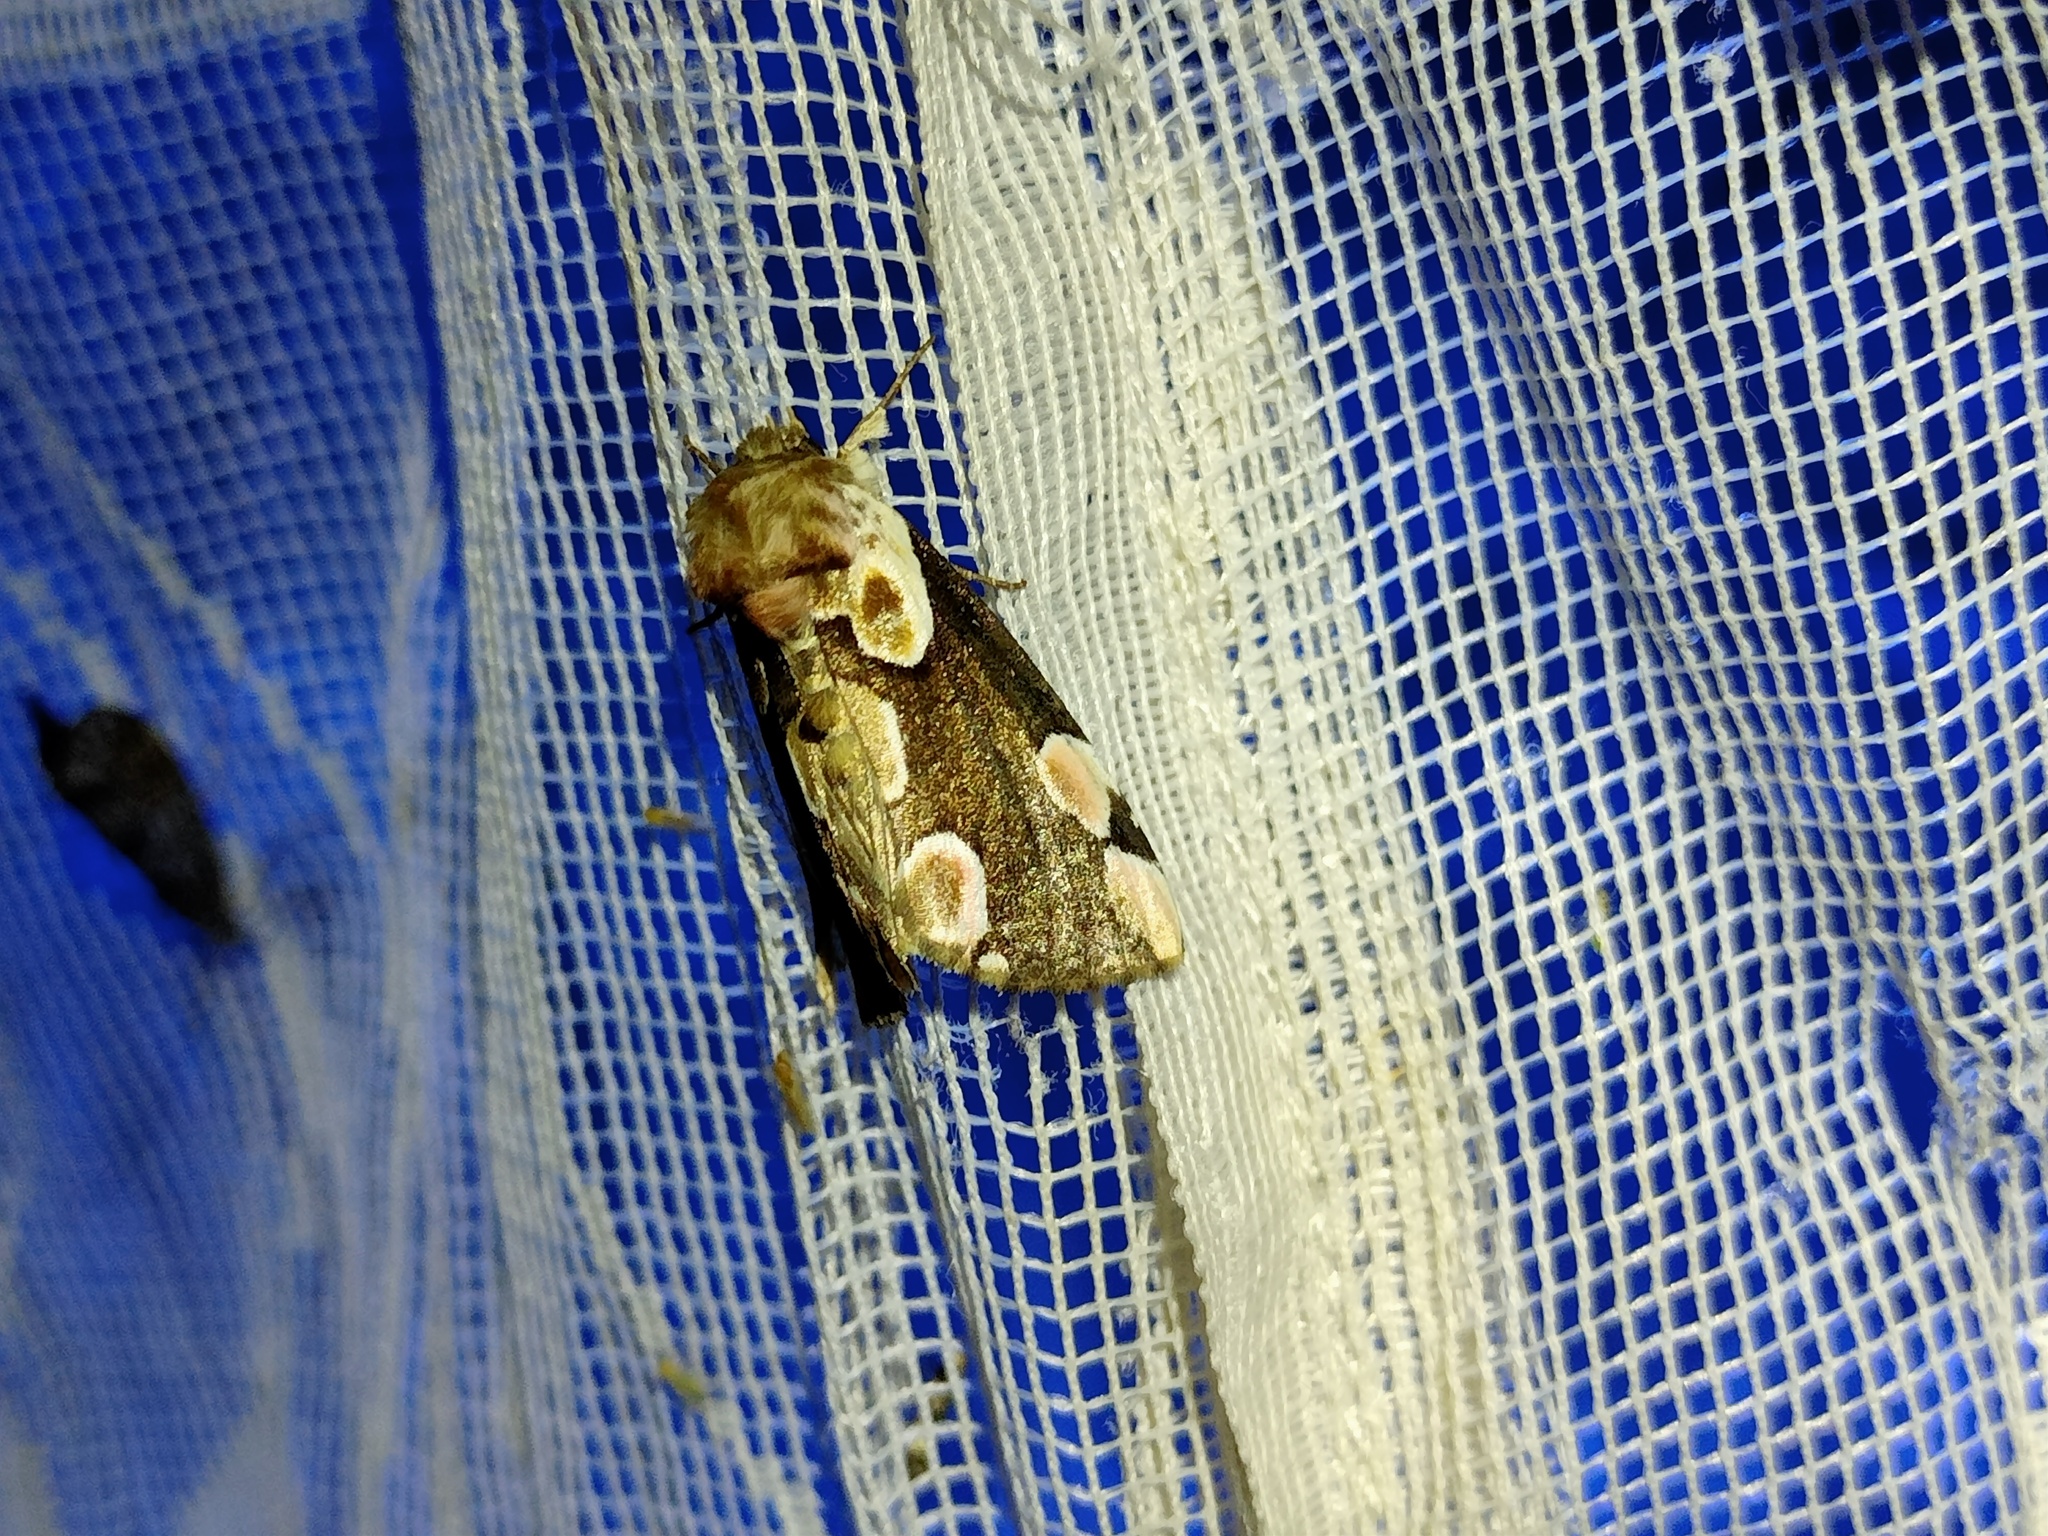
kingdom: Animalia
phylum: Arthropoda
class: Insecta
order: Lepidoptera
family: Drepanidae
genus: Thyatira
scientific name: Thyatira batis
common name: Peach blossom
